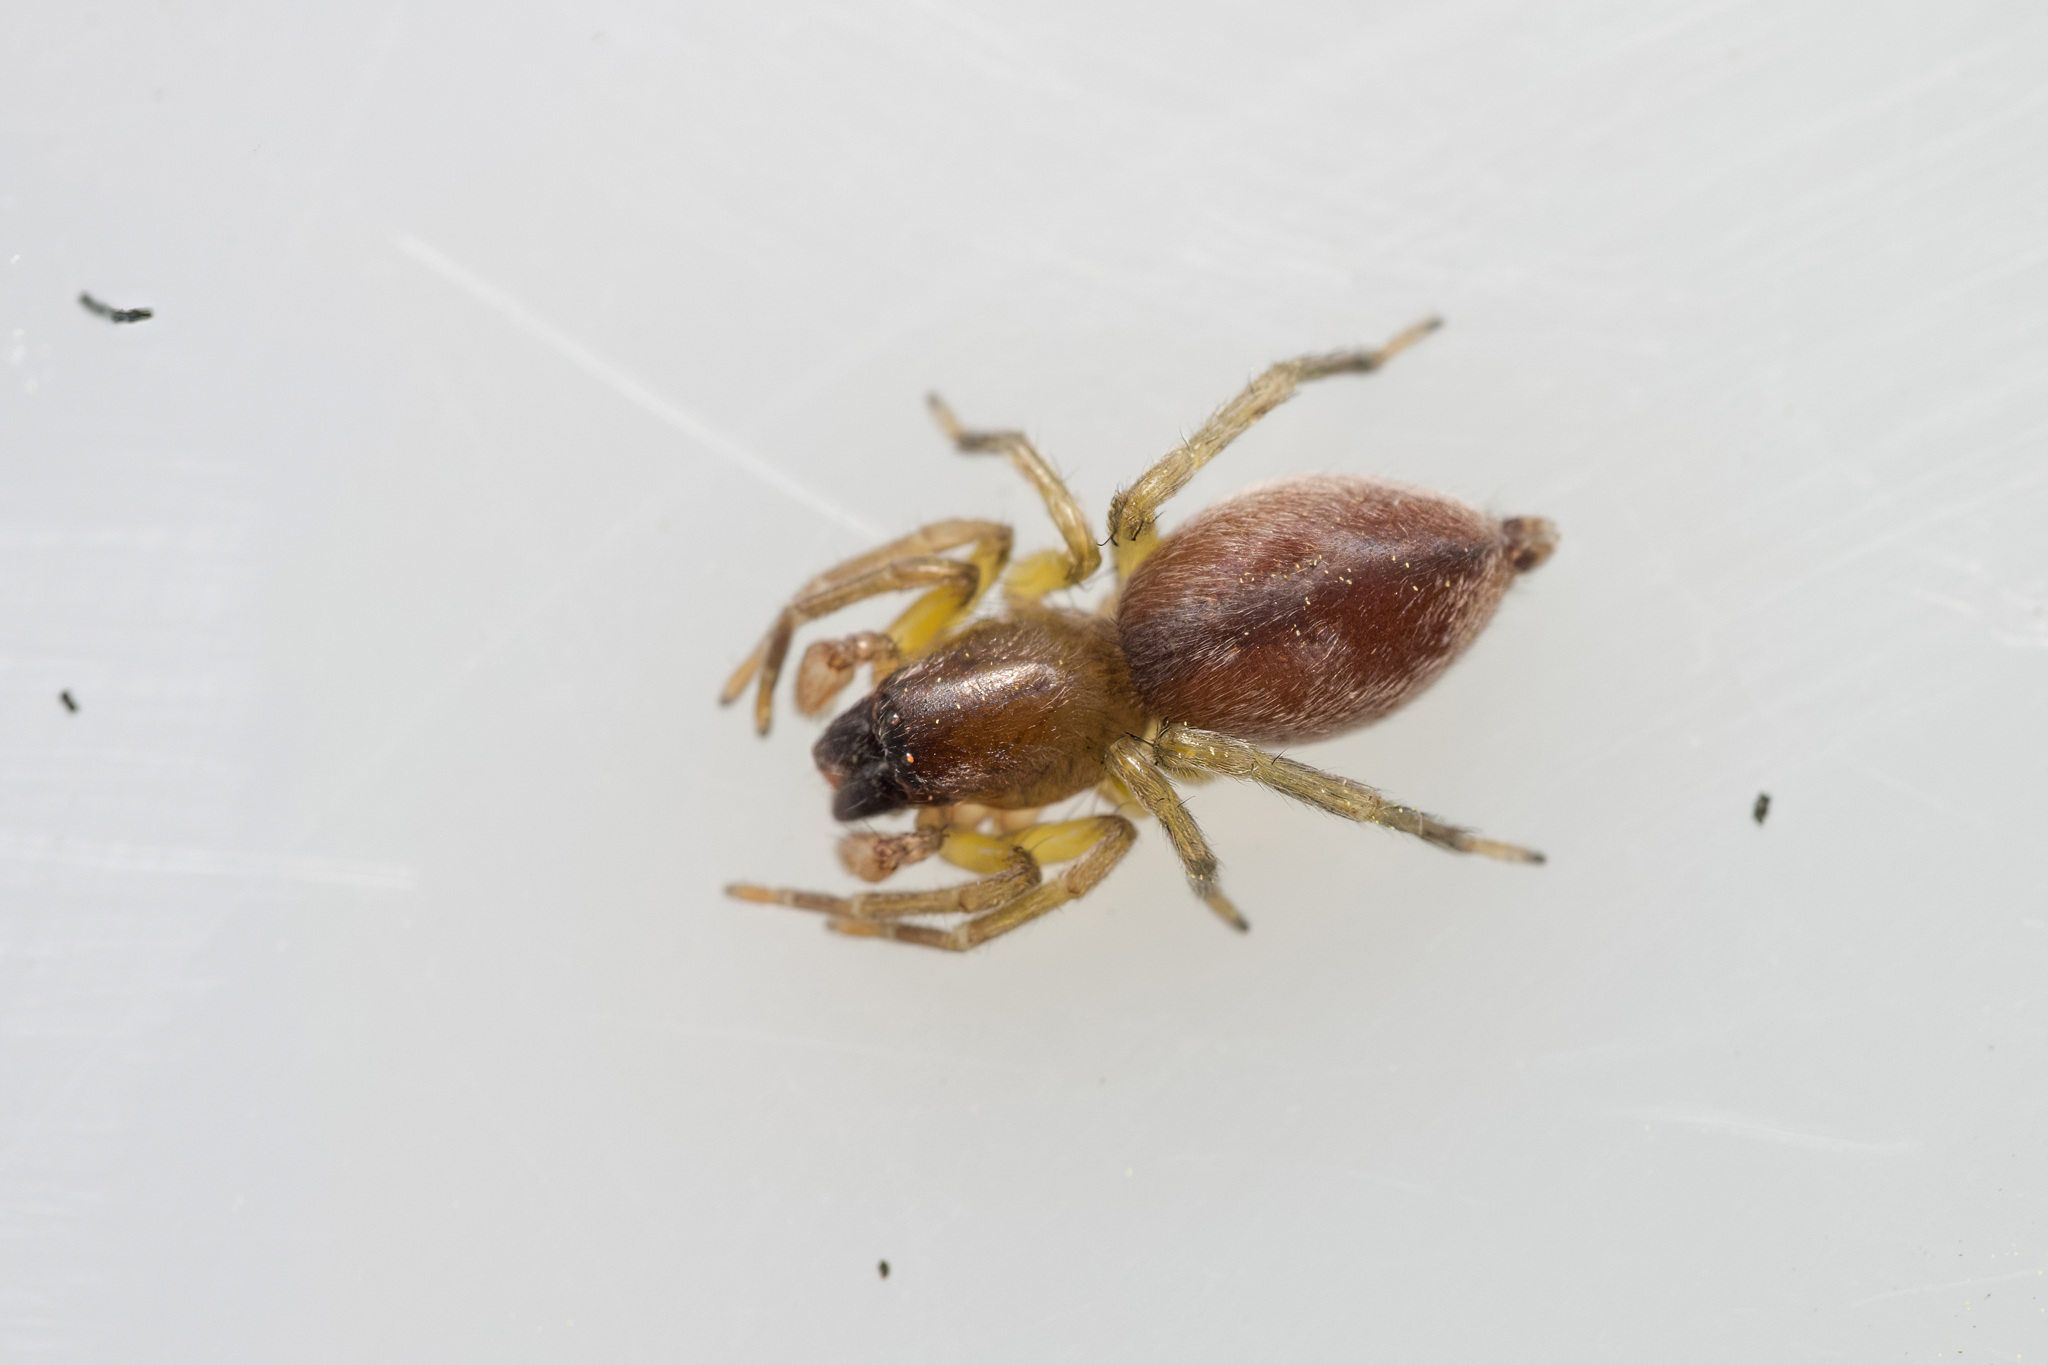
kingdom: Animalia
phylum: Arthropoda
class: Arachnida
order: Araneae
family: Clubionidae
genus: Clubiona
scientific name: Clubiona brevipes
